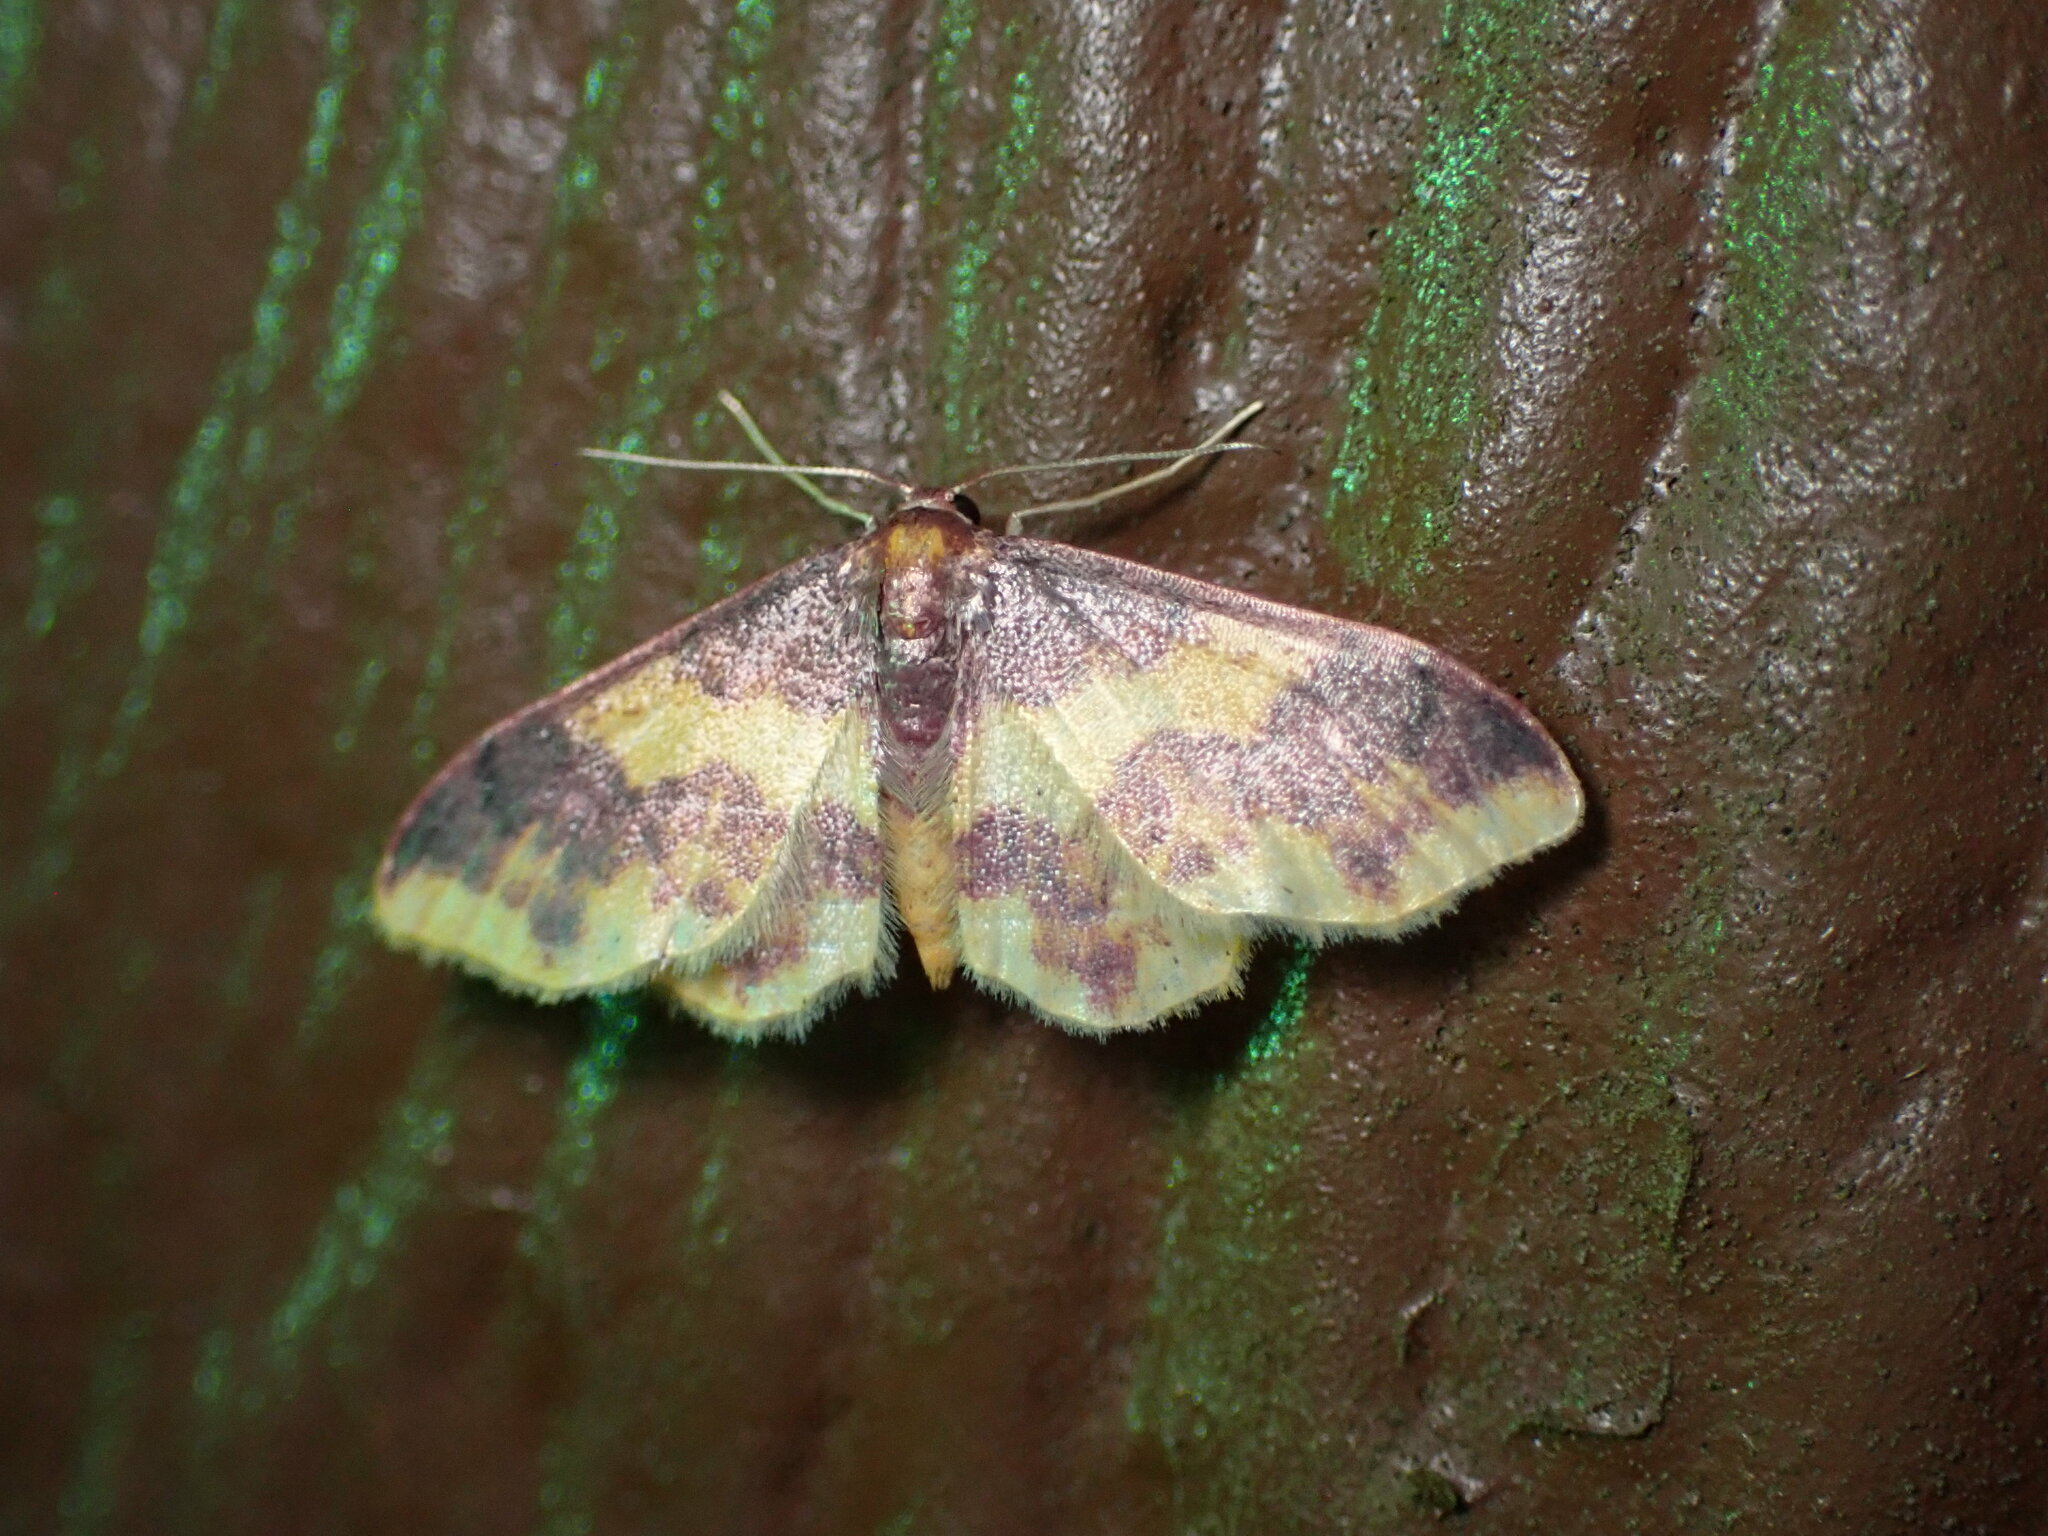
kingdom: Animalia
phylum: Arthropoda
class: Insecta
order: Lepidoptera
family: Geometridae
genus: Lophosis
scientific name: Lophosis labeculata
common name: Stained lophosis moth
